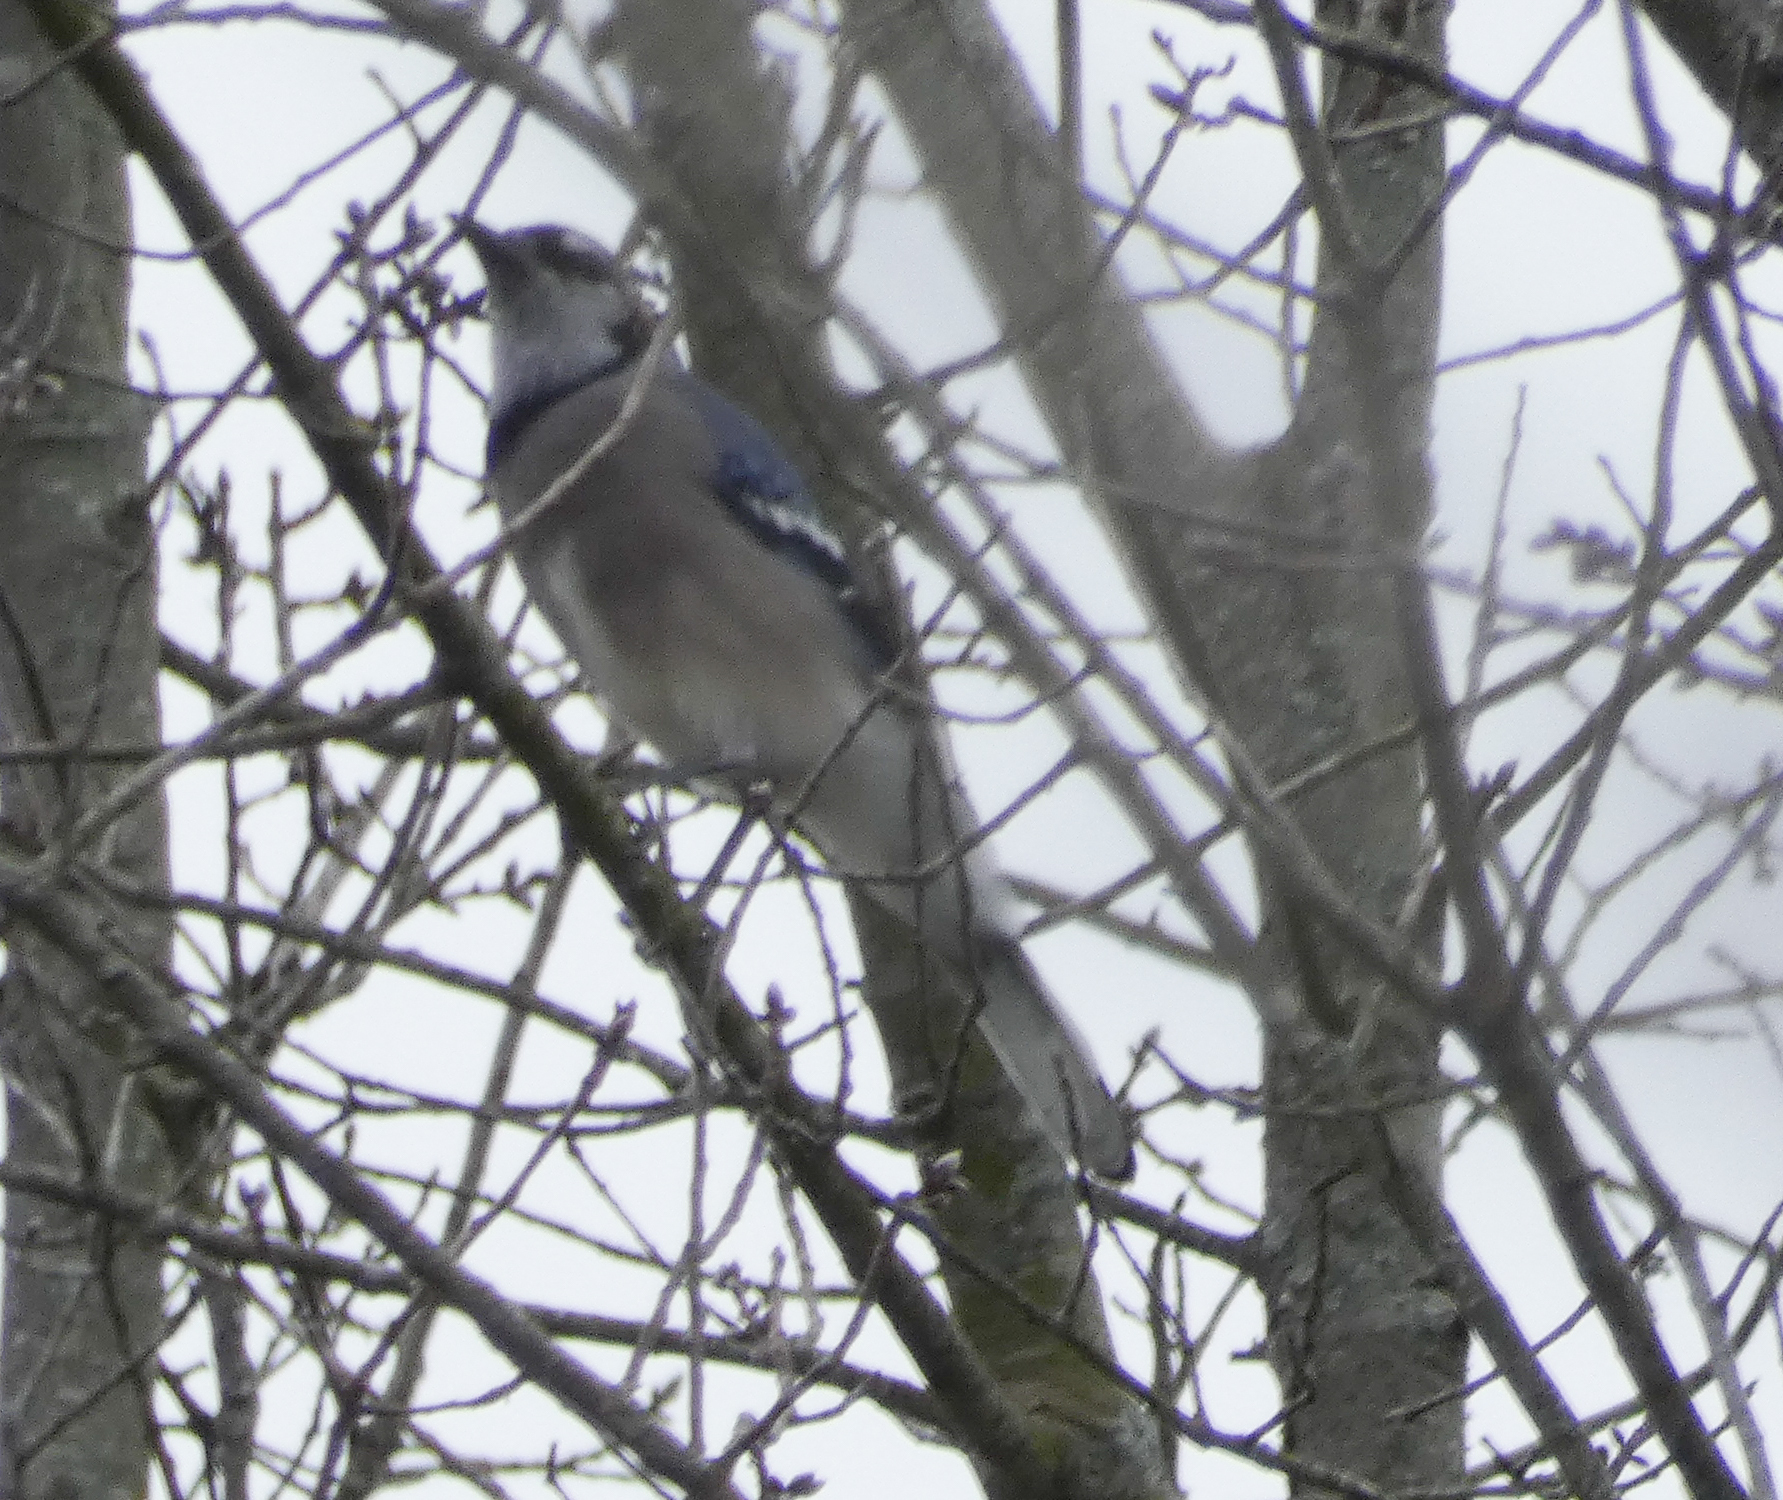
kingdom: Animalia
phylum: Chordata
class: Aves
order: Passeriformes
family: Corvidae
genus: Cyanocitta
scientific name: Cyanocitta cristata
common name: Blue jay
